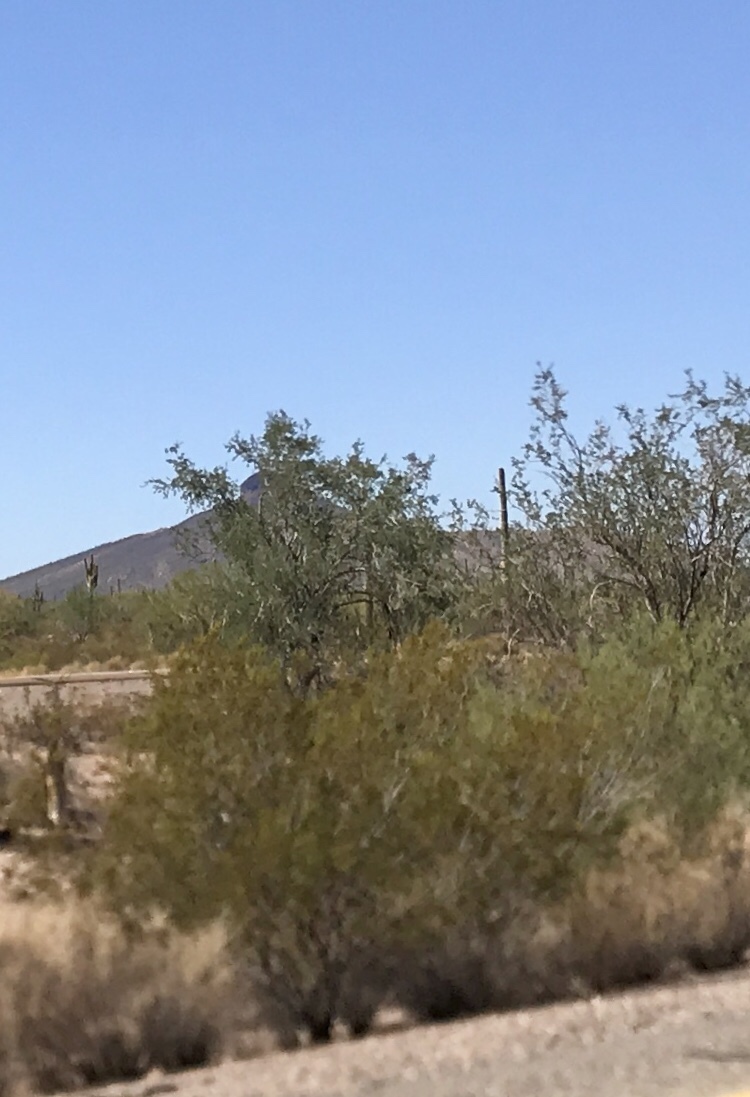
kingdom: Plantae
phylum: Tracheophyta
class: Magnoliopsida
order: Zygophyllales
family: Zygophyllaceae
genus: Larrea
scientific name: Larrea tridentata
